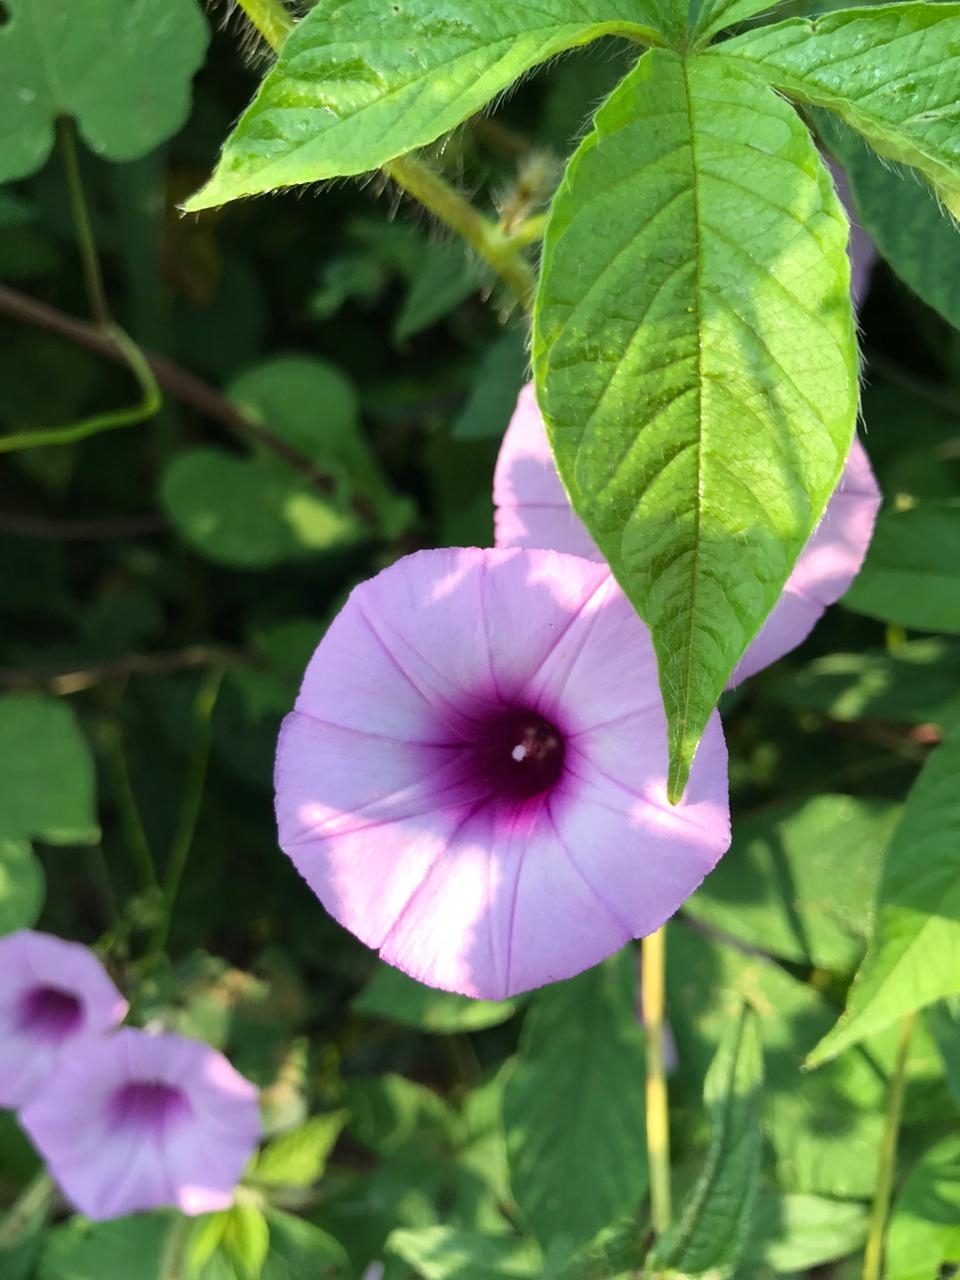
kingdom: Plantae
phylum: Tracheophyta
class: Magnoliopsida
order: Solanales
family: Convolvulaceae
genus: Ipomoea
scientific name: Ipomoea trifida
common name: Cotton morningglory
